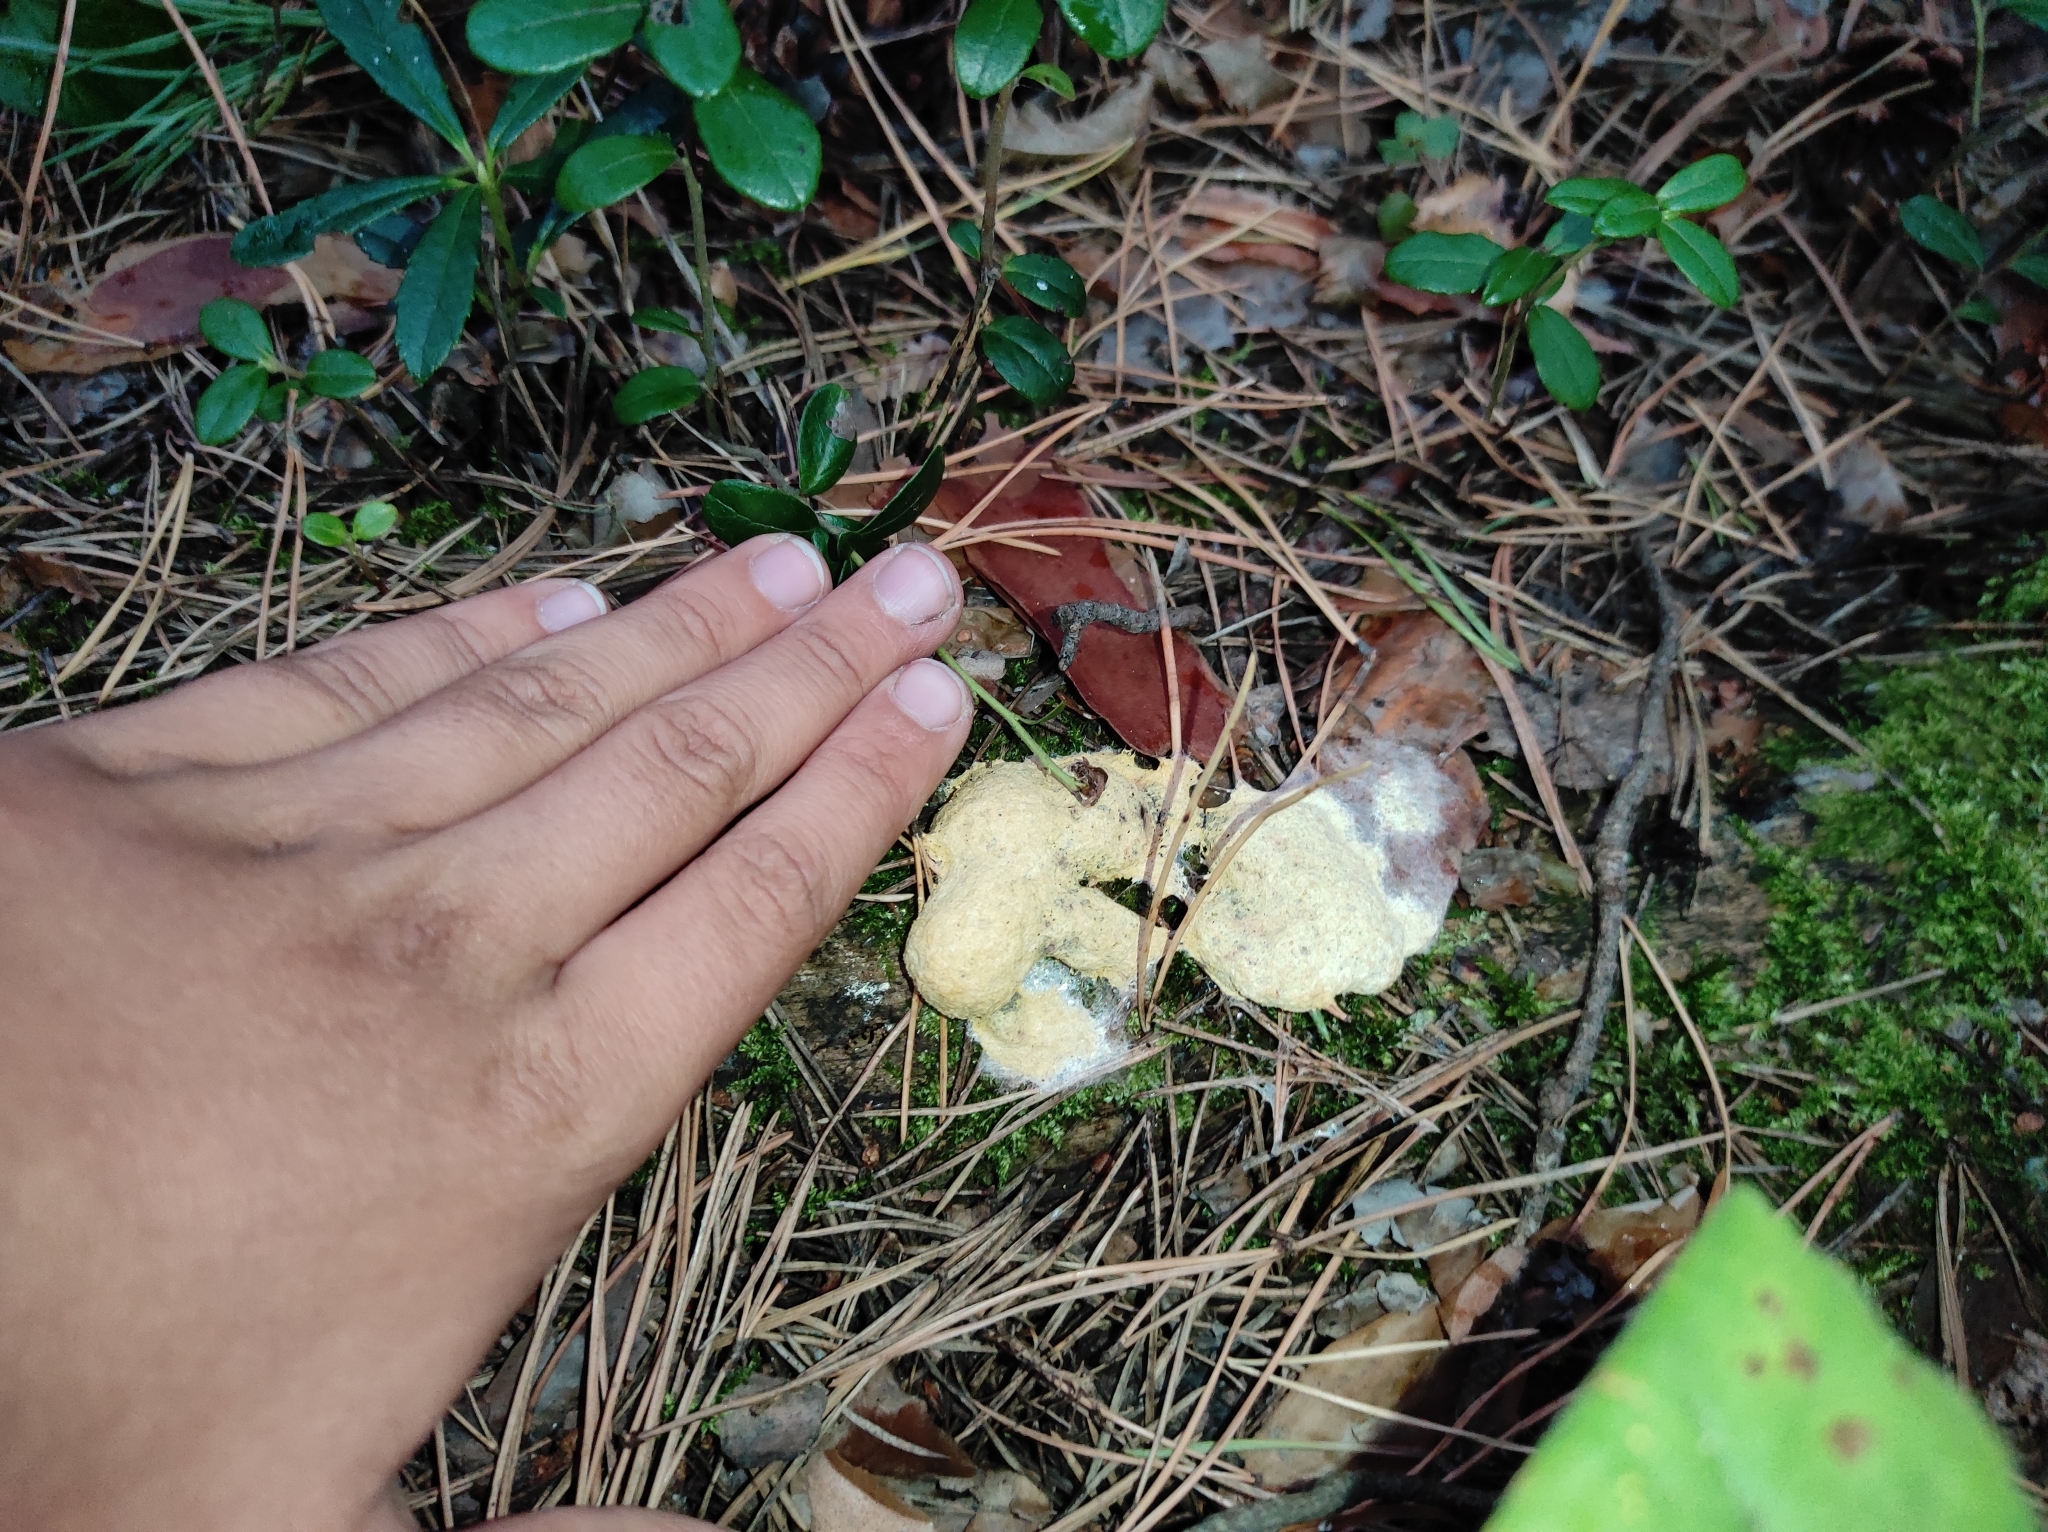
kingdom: Protozoa
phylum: Mycetozoa
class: Myxomycetes
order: Physarales
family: Physaraceae
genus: Fuligo
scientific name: Fuligo septica
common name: Dog vomit slime mold
